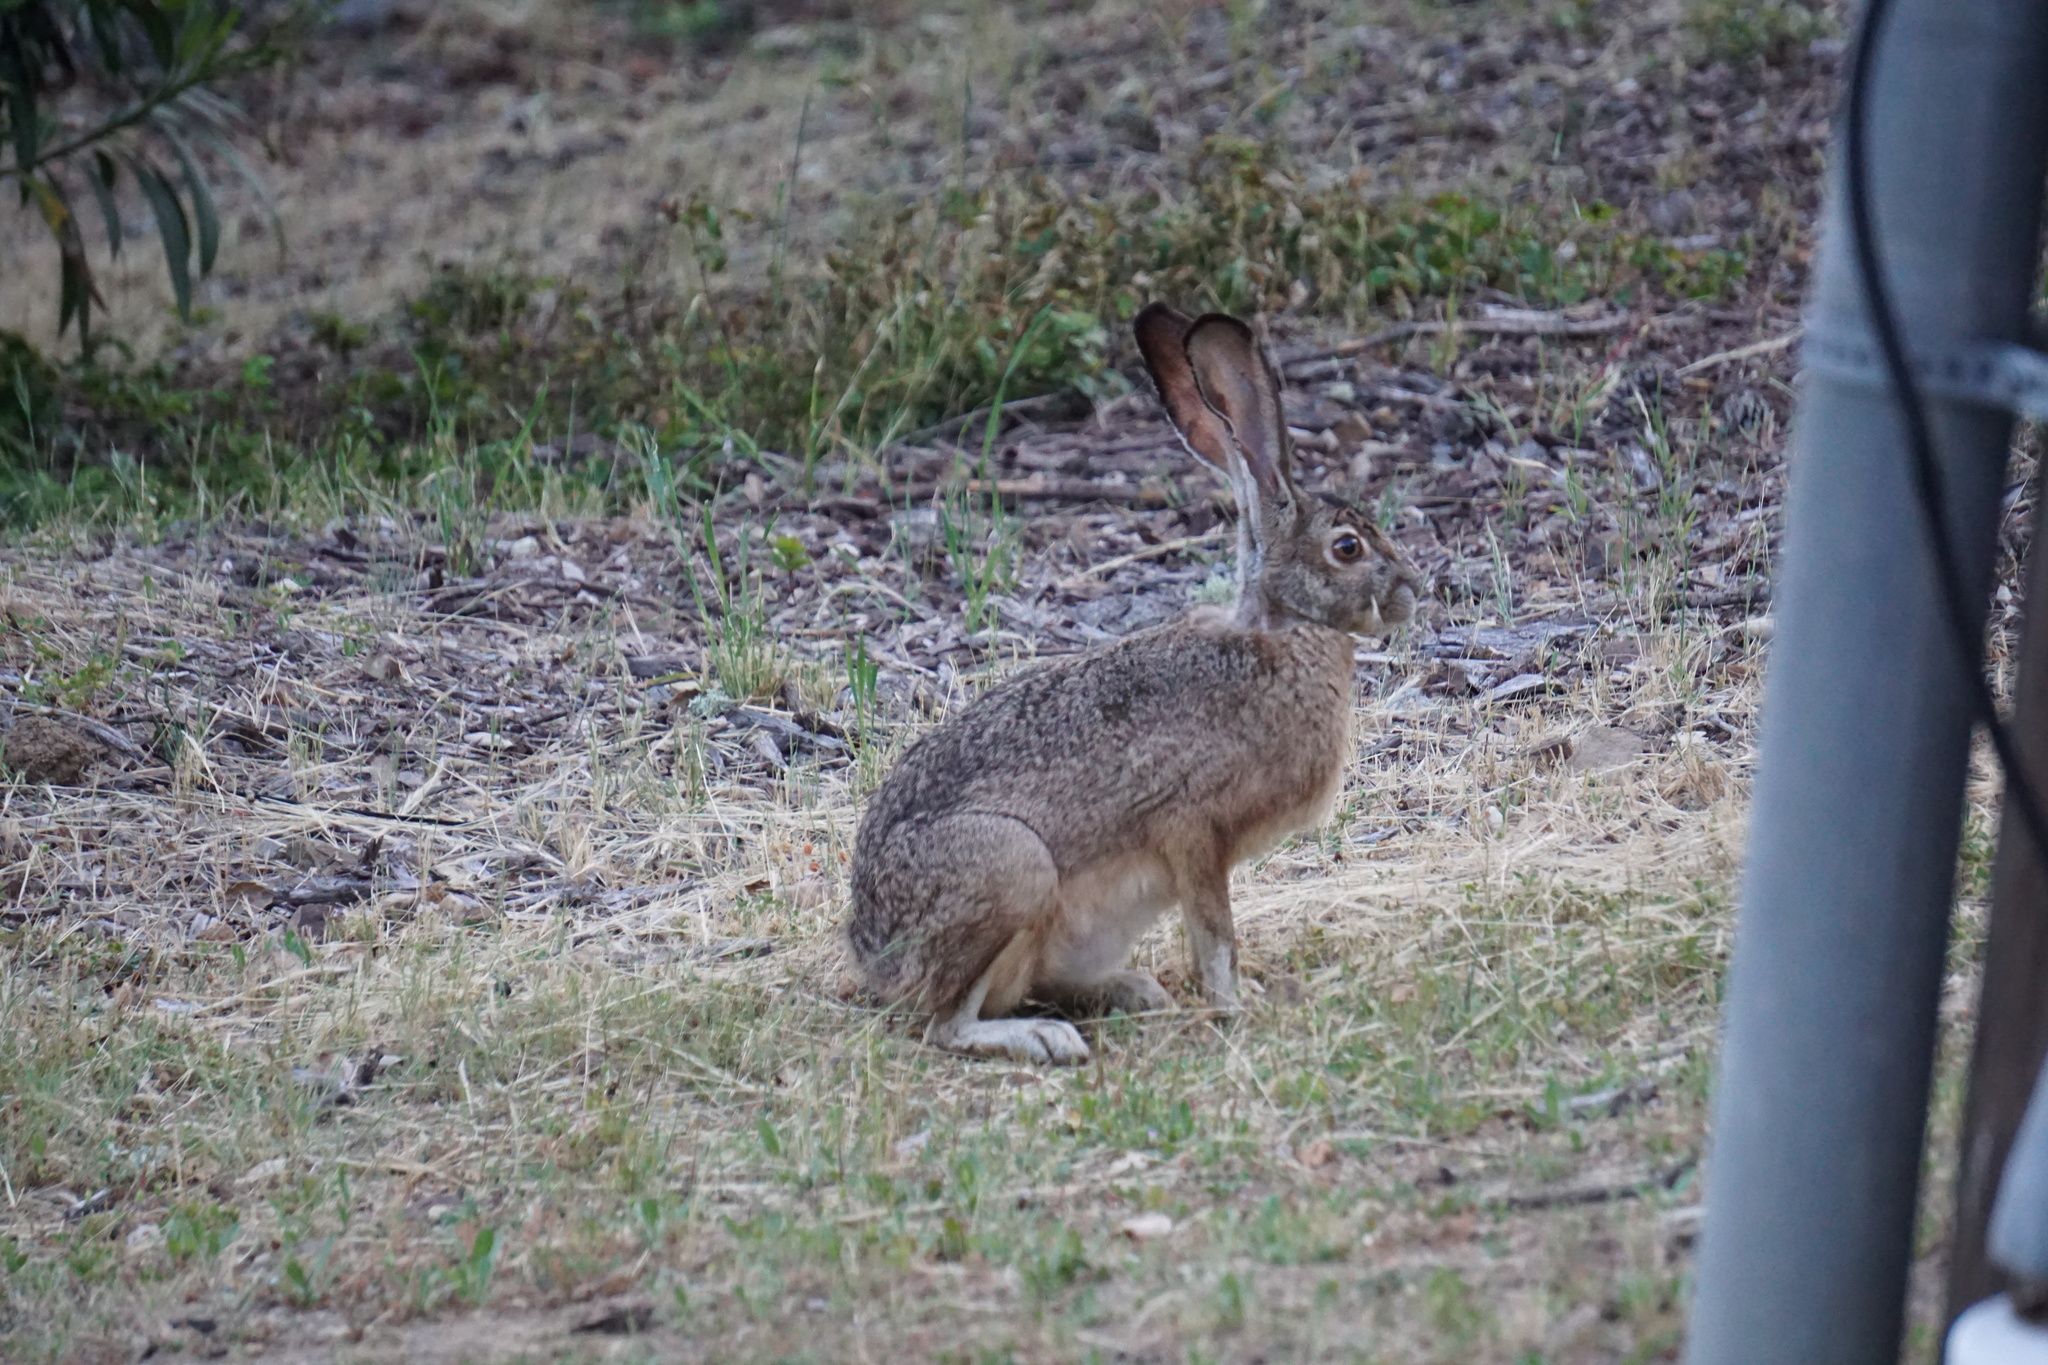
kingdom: Animalia
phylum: Chordata
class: Mammalia
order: Lagomorpha
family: Leporidae
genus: Lepus
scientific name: Lepus californicus
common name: Black-tailed jackrabbit
